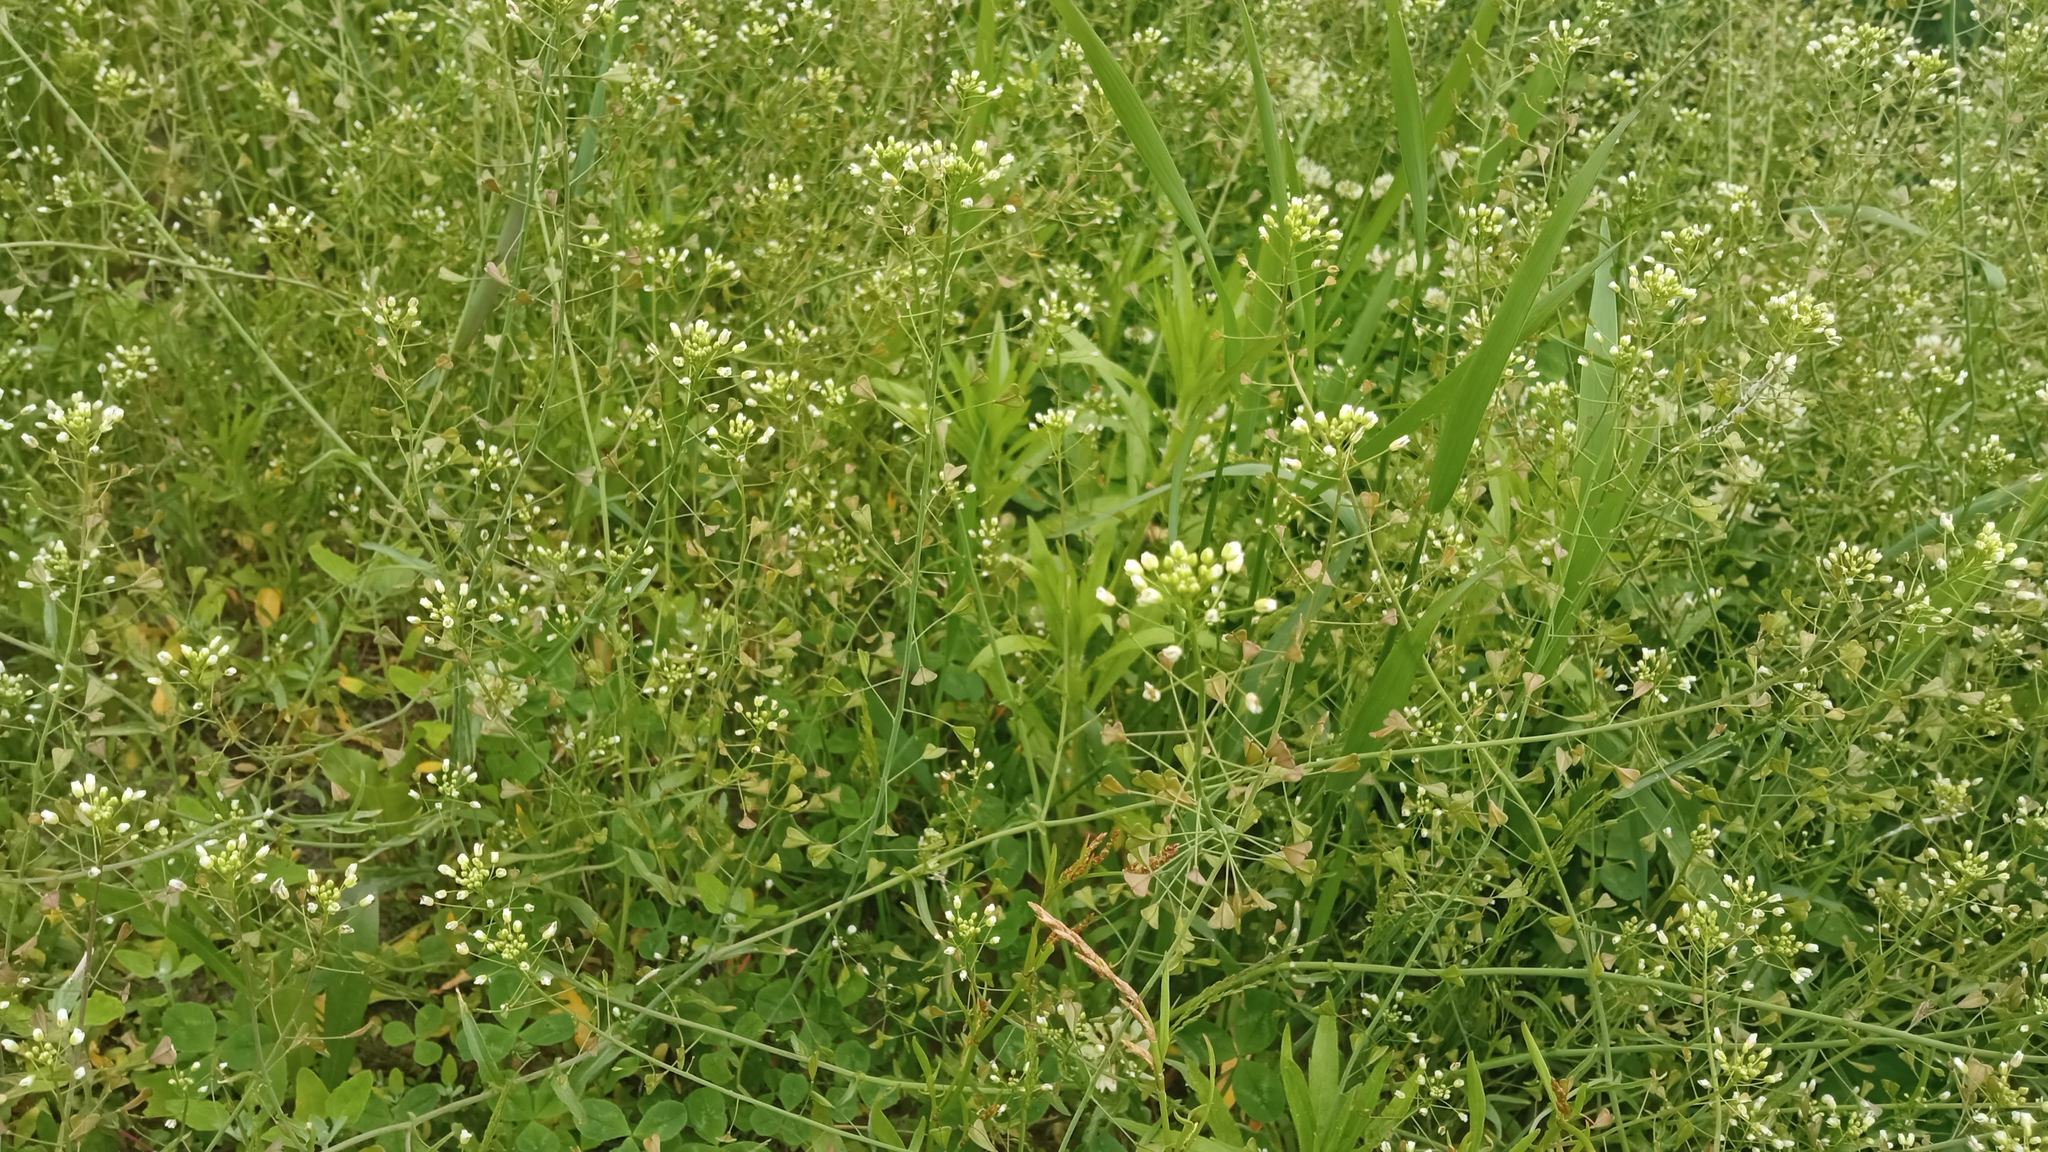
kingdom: Plantae
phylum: Tracheophyta
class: Magnoliopsida
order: Brassicales
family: Brassicaceae
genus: Capsella
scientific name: Capsella bursa-pastoris
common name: Shepherd's purse
